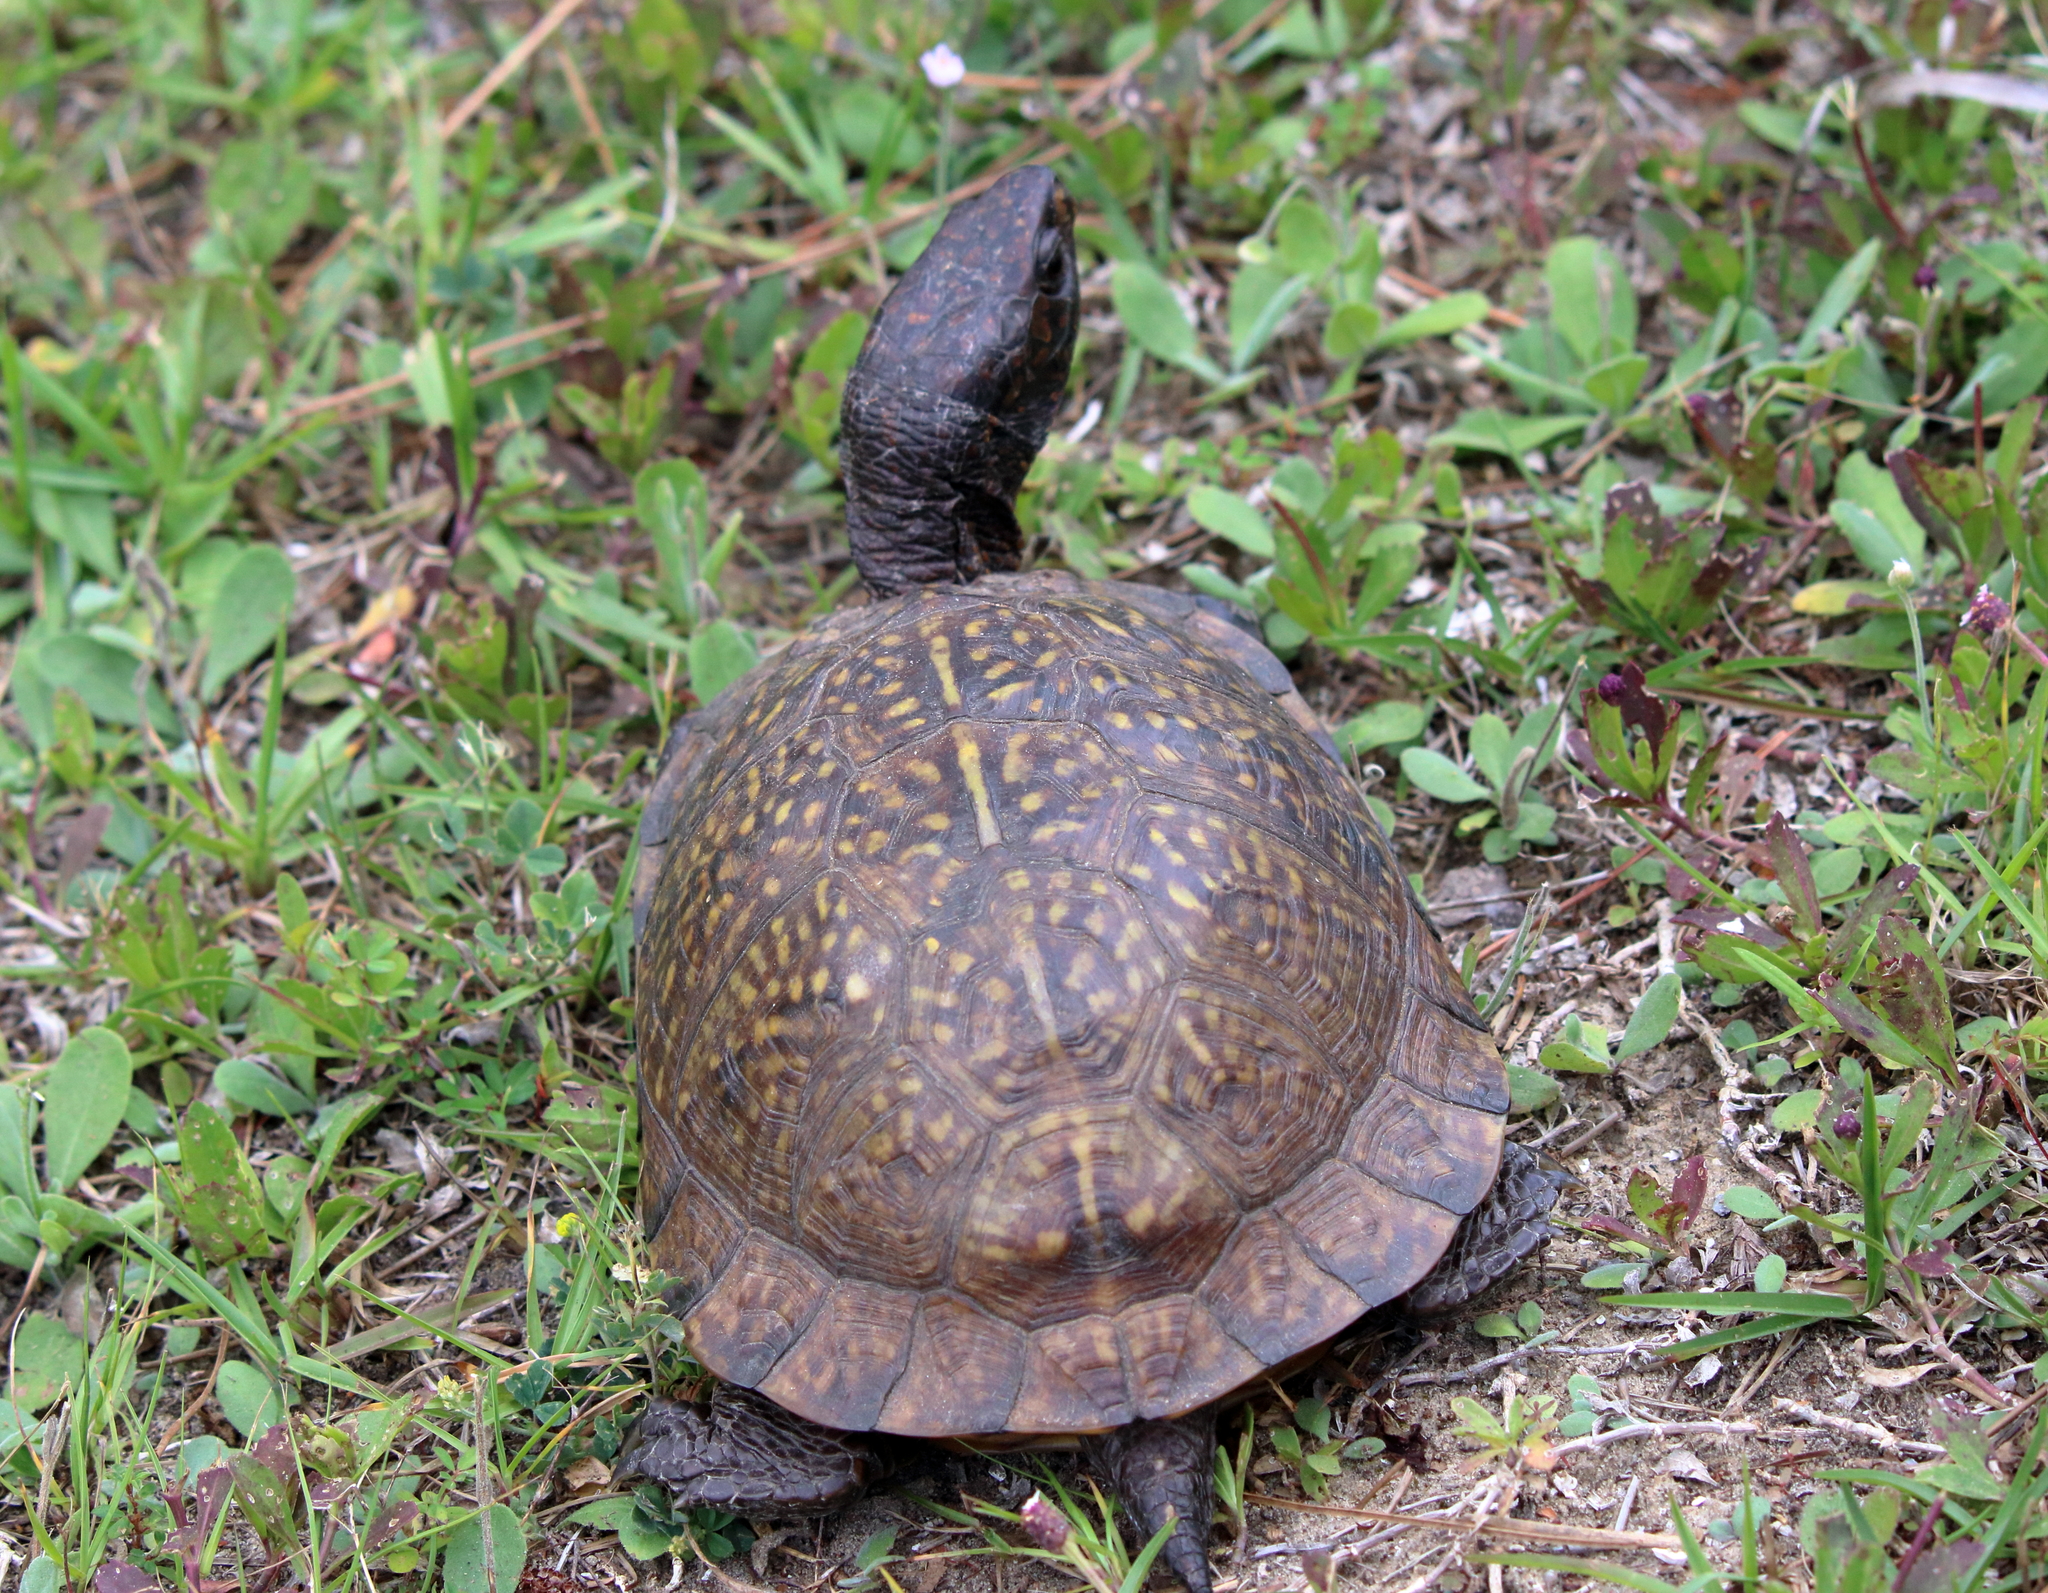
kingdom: Animalia
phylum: Chordata
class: Testudines
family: Emydidae
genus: Terrapene
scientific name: Terrapene carolina
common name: Common box turtle
